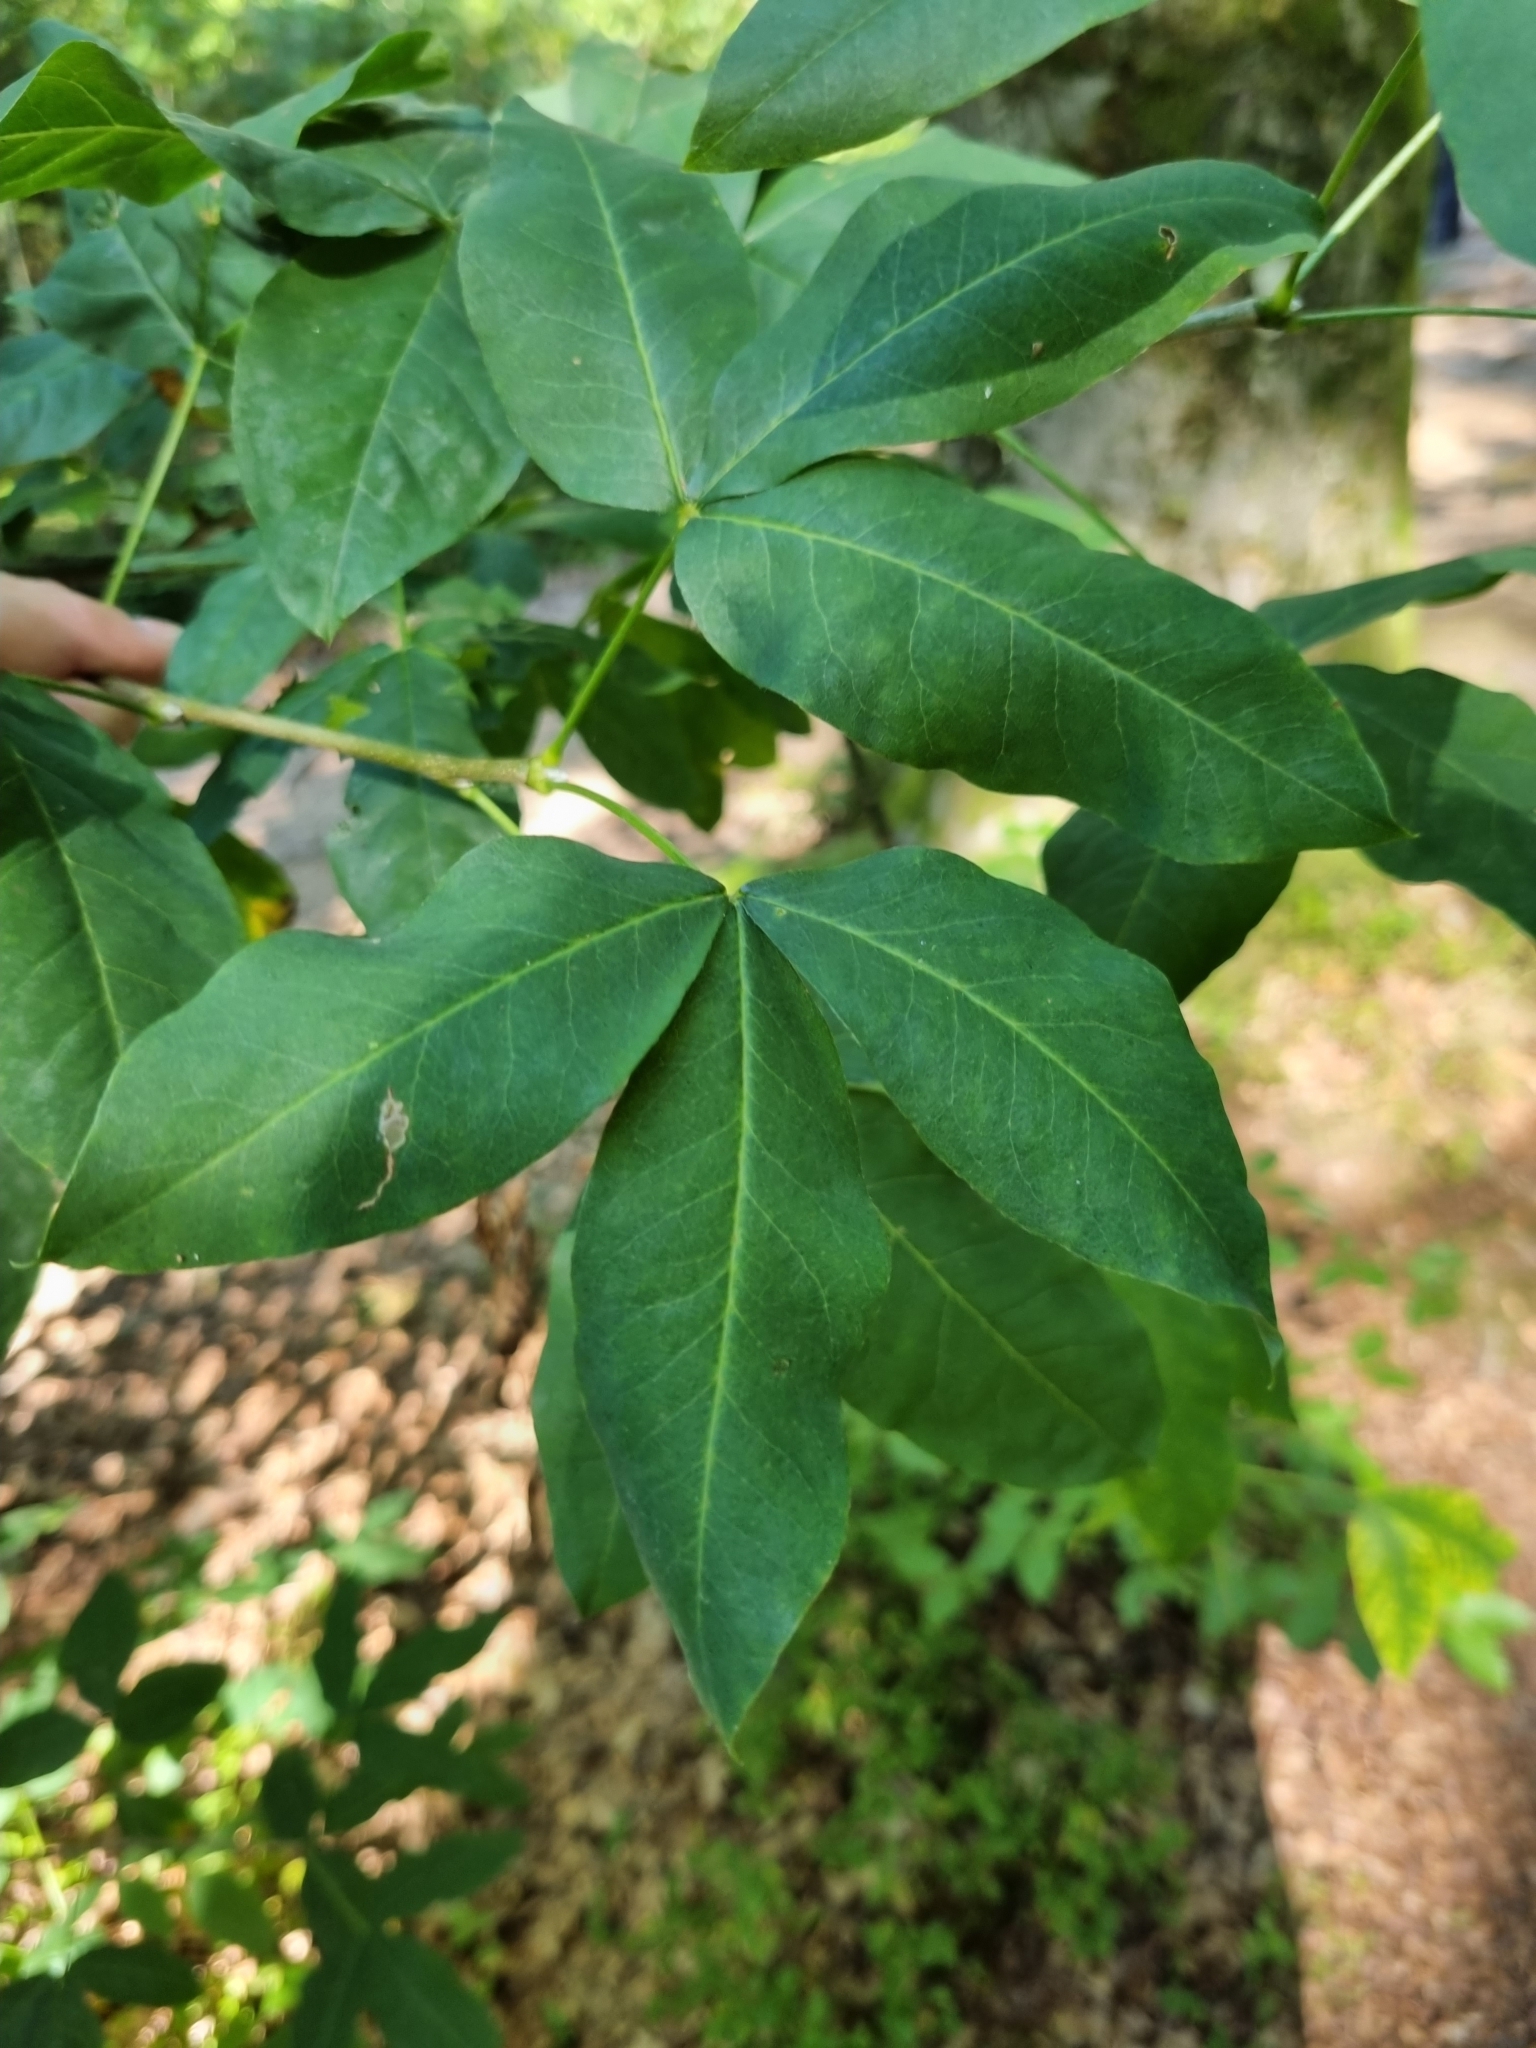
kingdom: Plantae
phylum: Tracheophyta
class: Magnoliopsida
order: Fabales
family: Fabaceae
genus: Laburnum
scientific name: Laburnum anagyroides
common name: Laburnum
